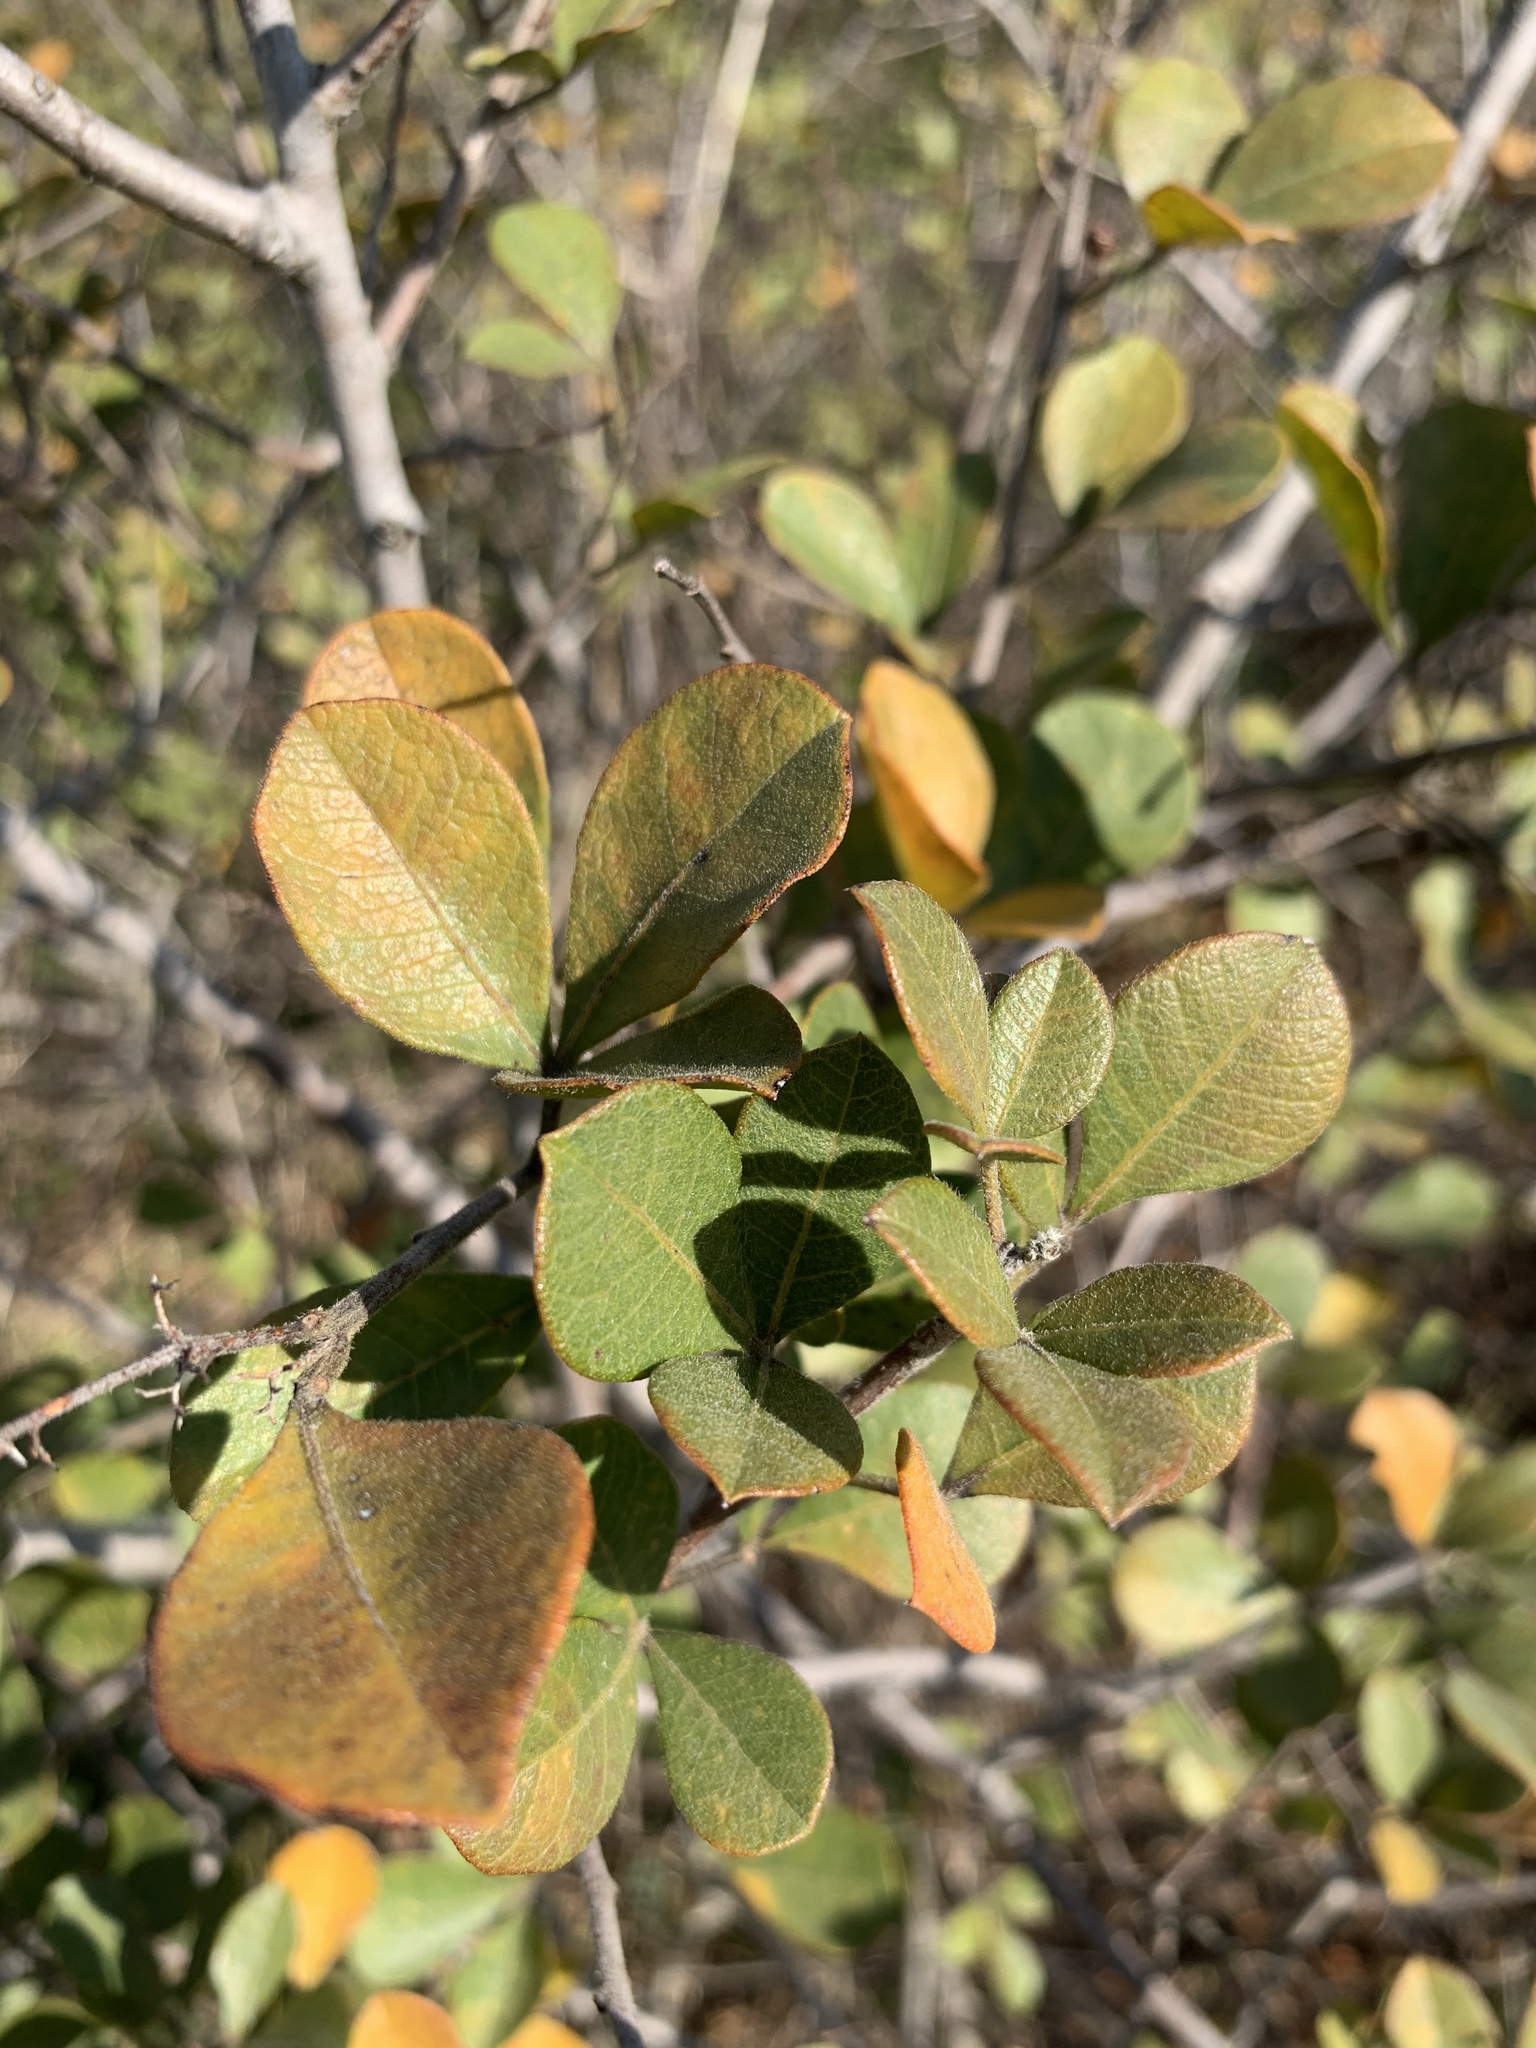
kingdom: Plantae
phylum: Tracheophyta
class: Magnoliopsida
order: Sapindales
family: Anacardiaceae
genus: Searsia
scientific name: Searsia laevigata
